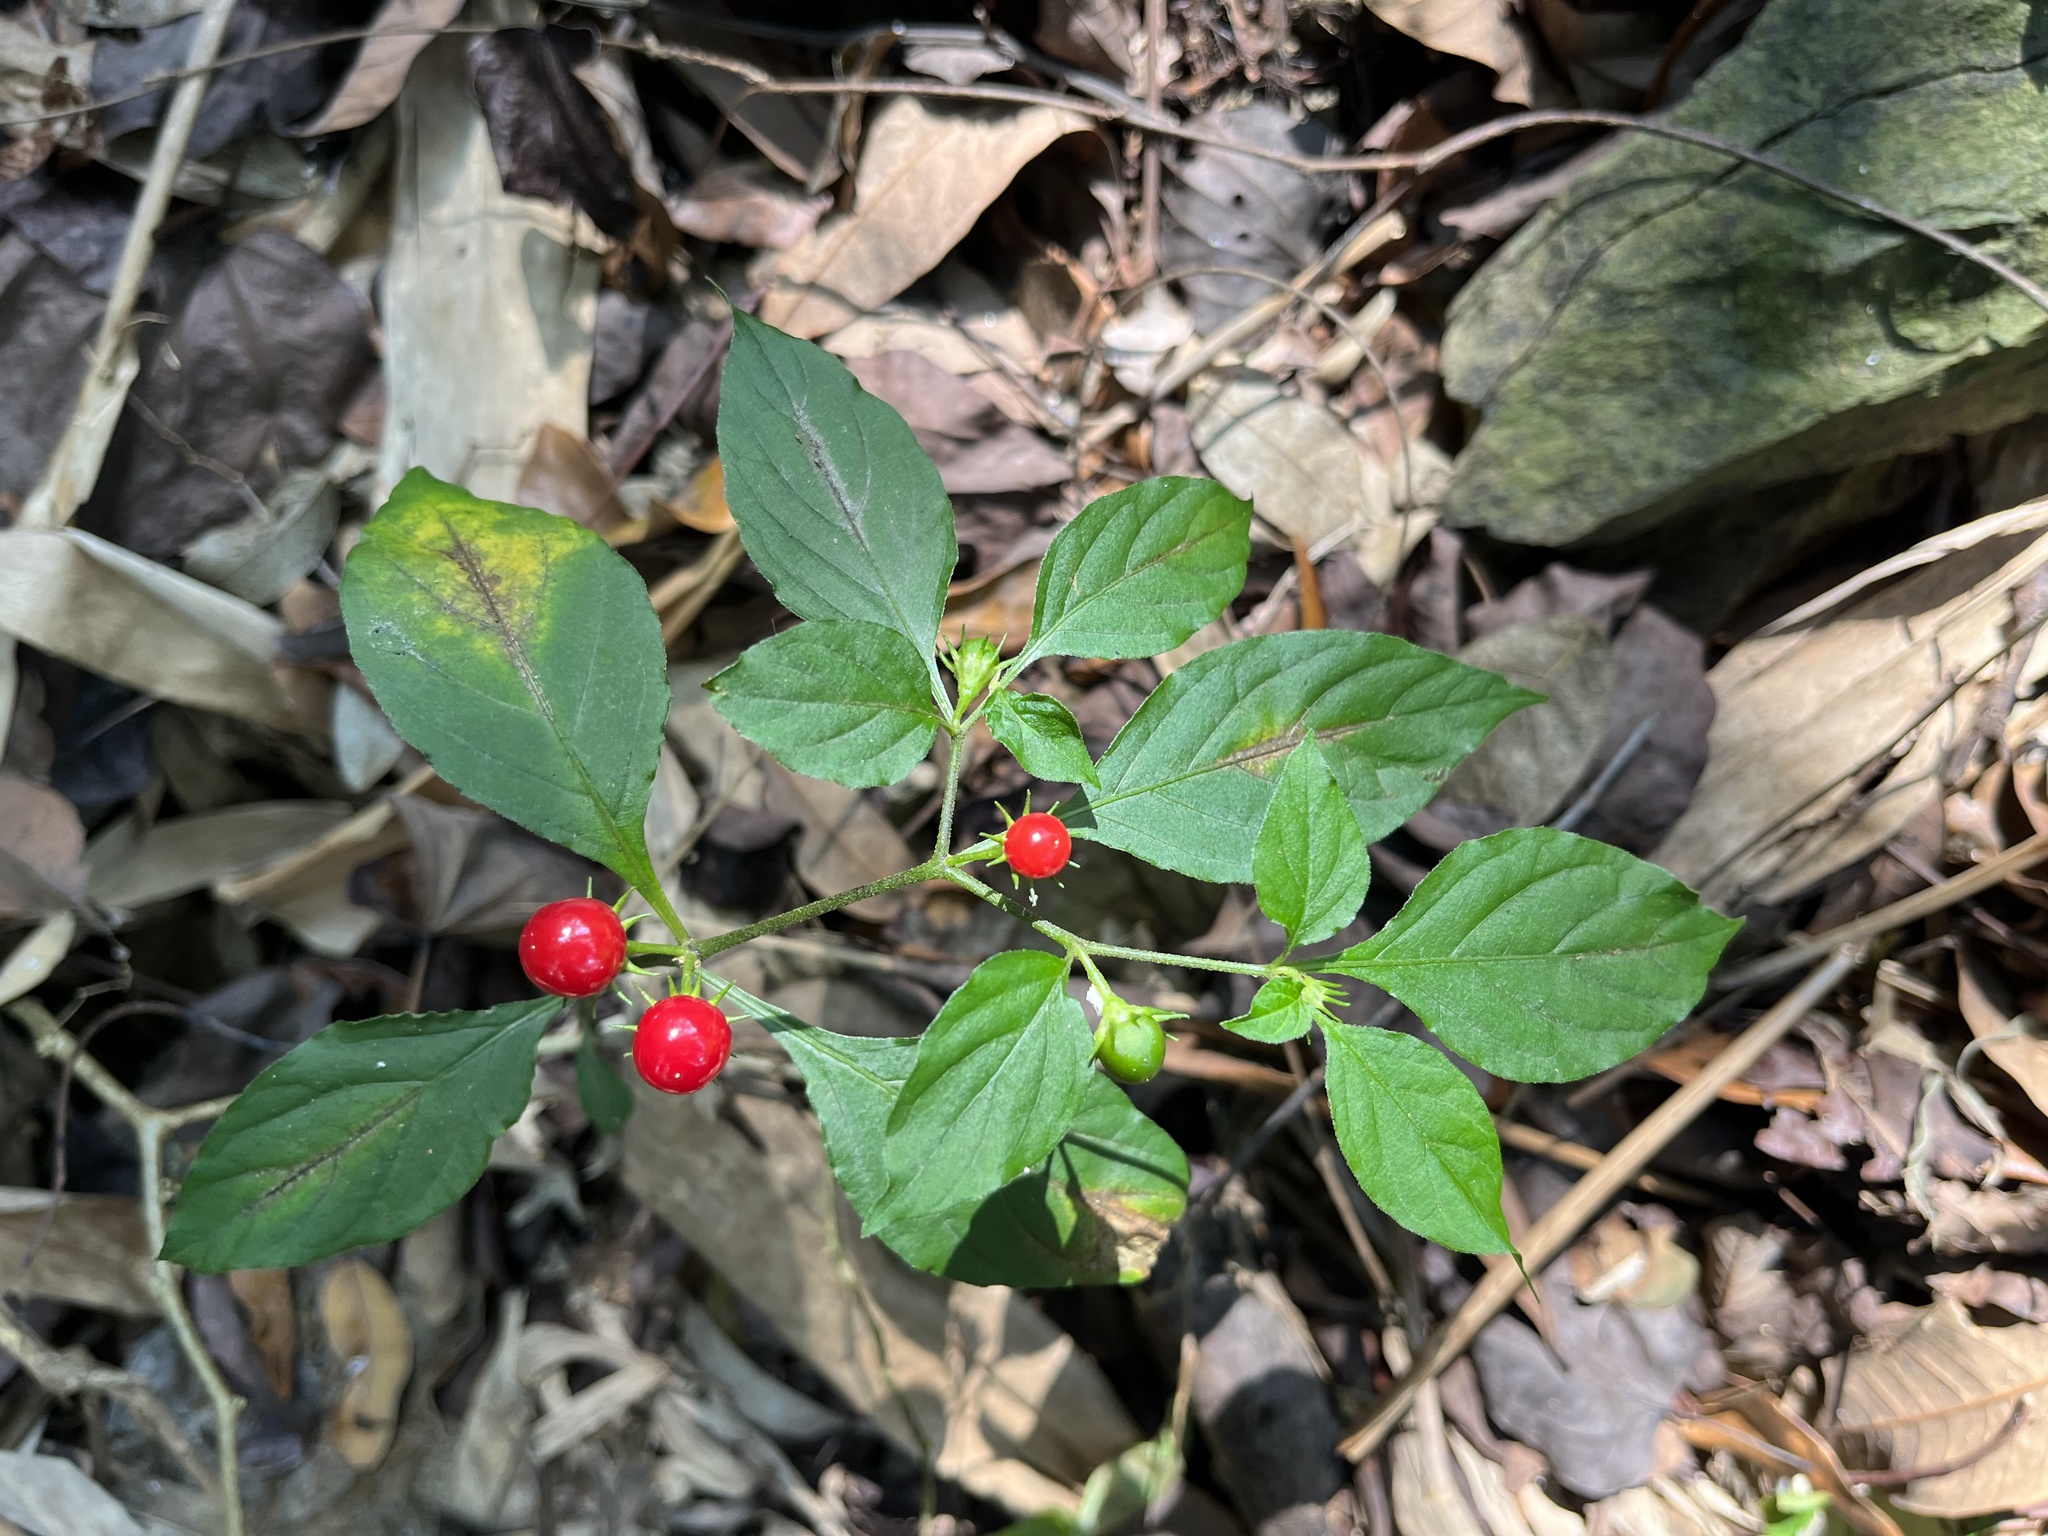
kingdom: Plantae
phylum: Tracheophyta
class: Magnoliopsida
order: Solanales
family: Solanaceae
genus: Lycianthes
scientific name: Lycianthes biflora
